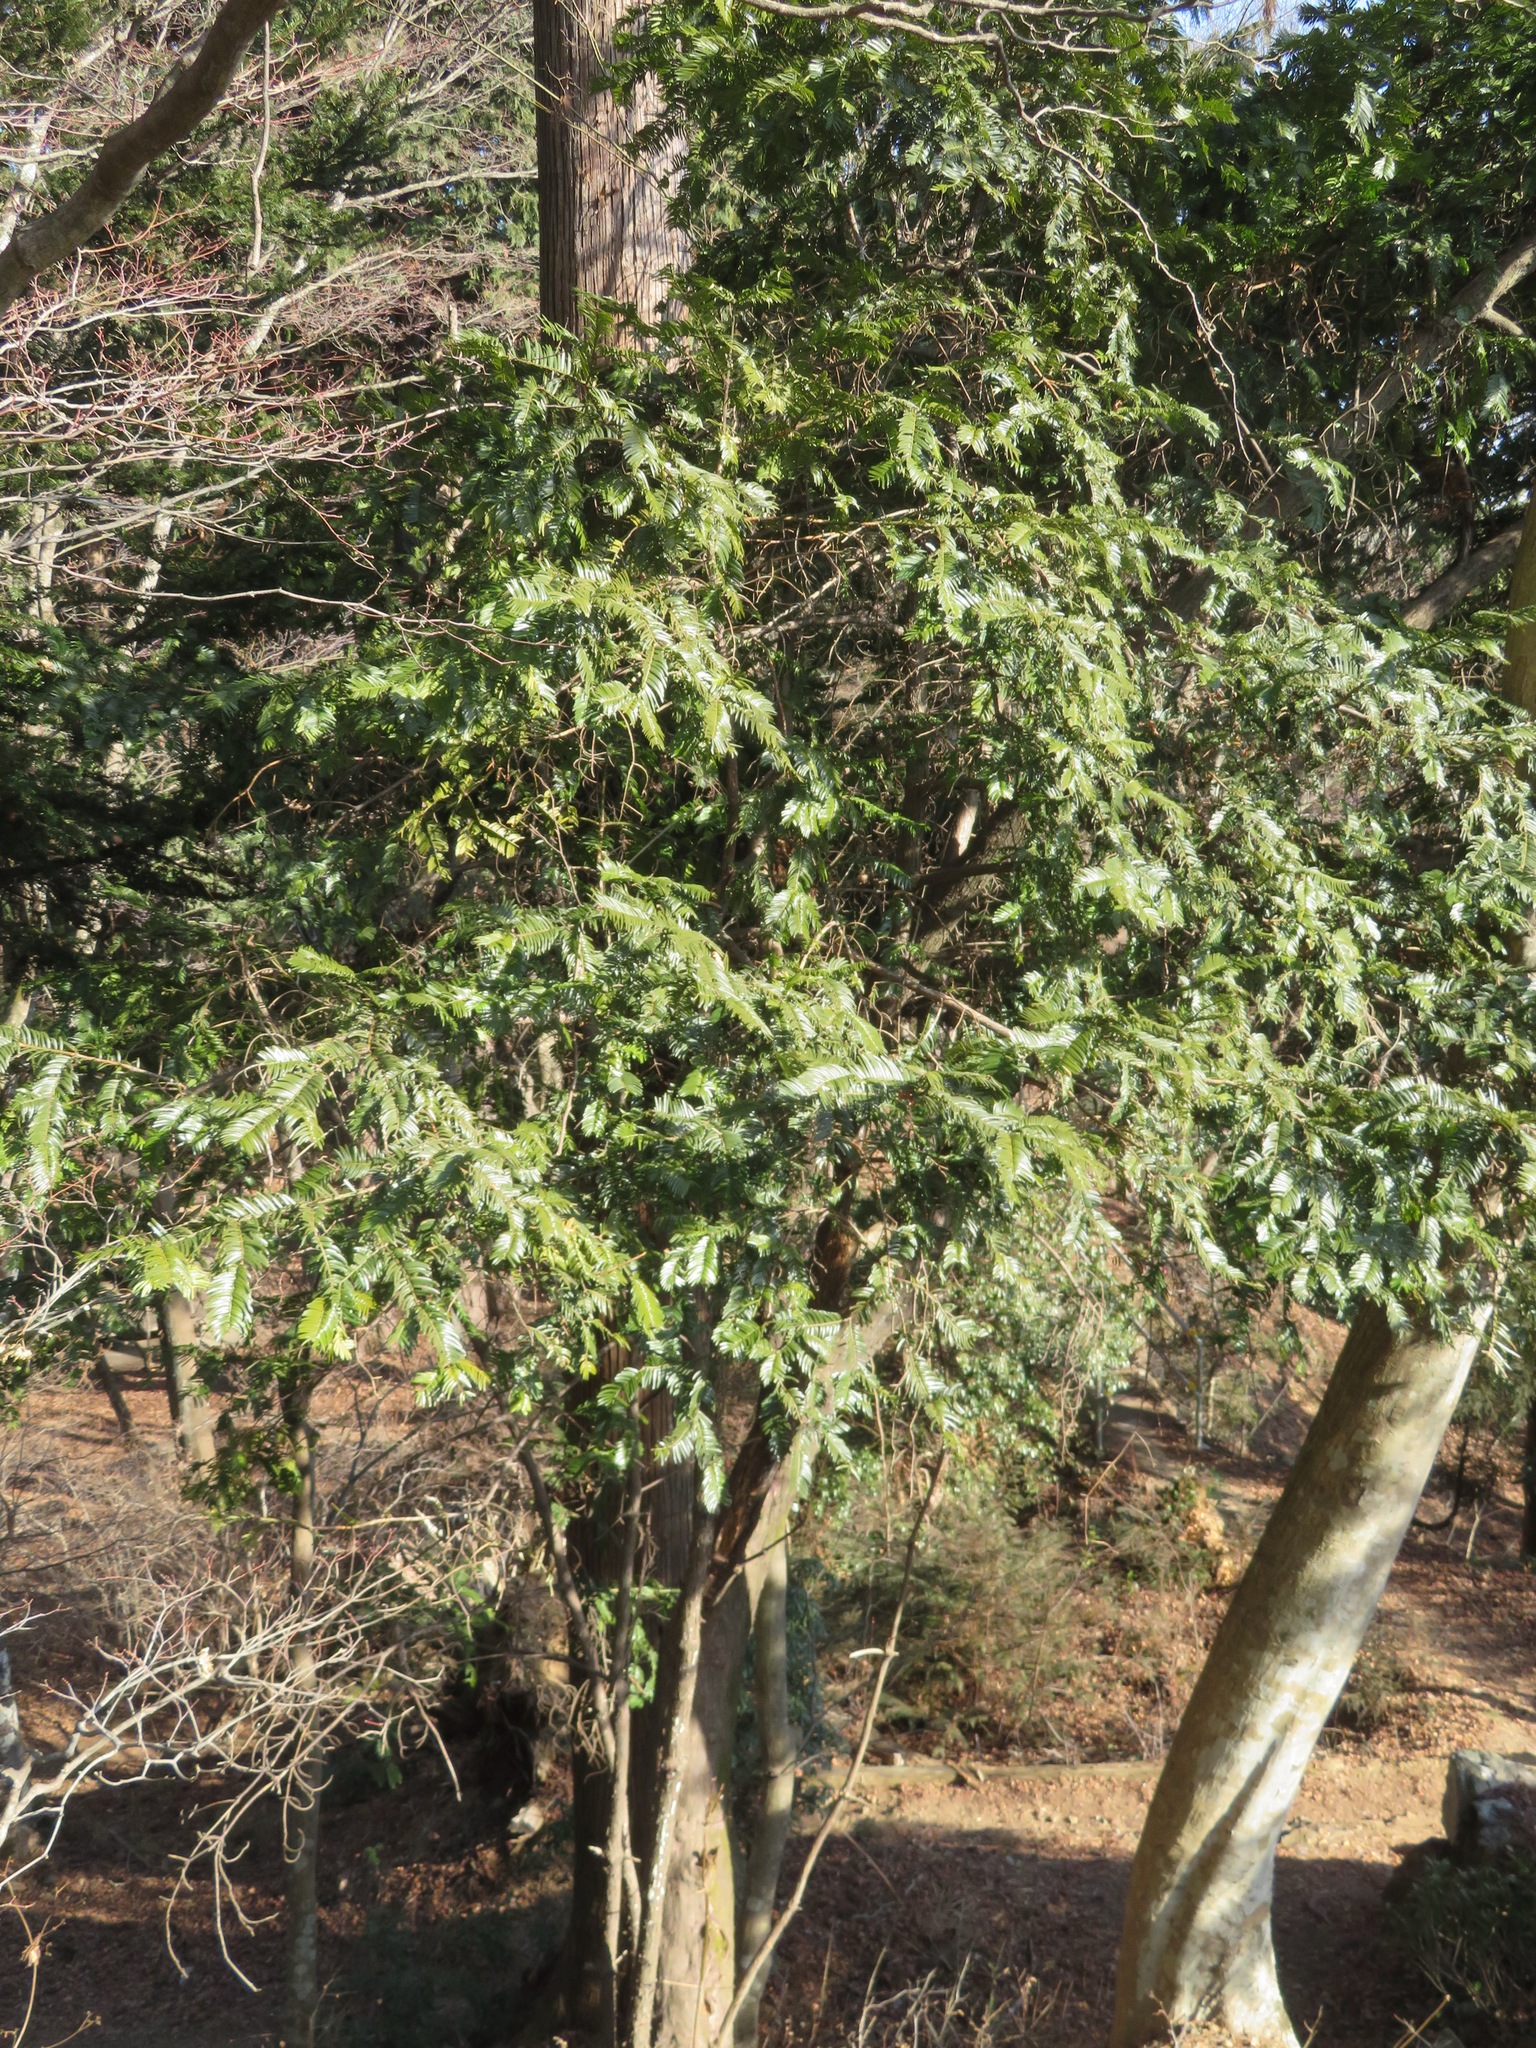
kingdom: Plantae
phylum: Tracheophyta
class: Pinopsida
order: Pinales
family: Cephalotaxaceae
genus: Cephalotaxus
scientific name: Cephalotaxus harringtonia
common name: Japanese plum-yew
